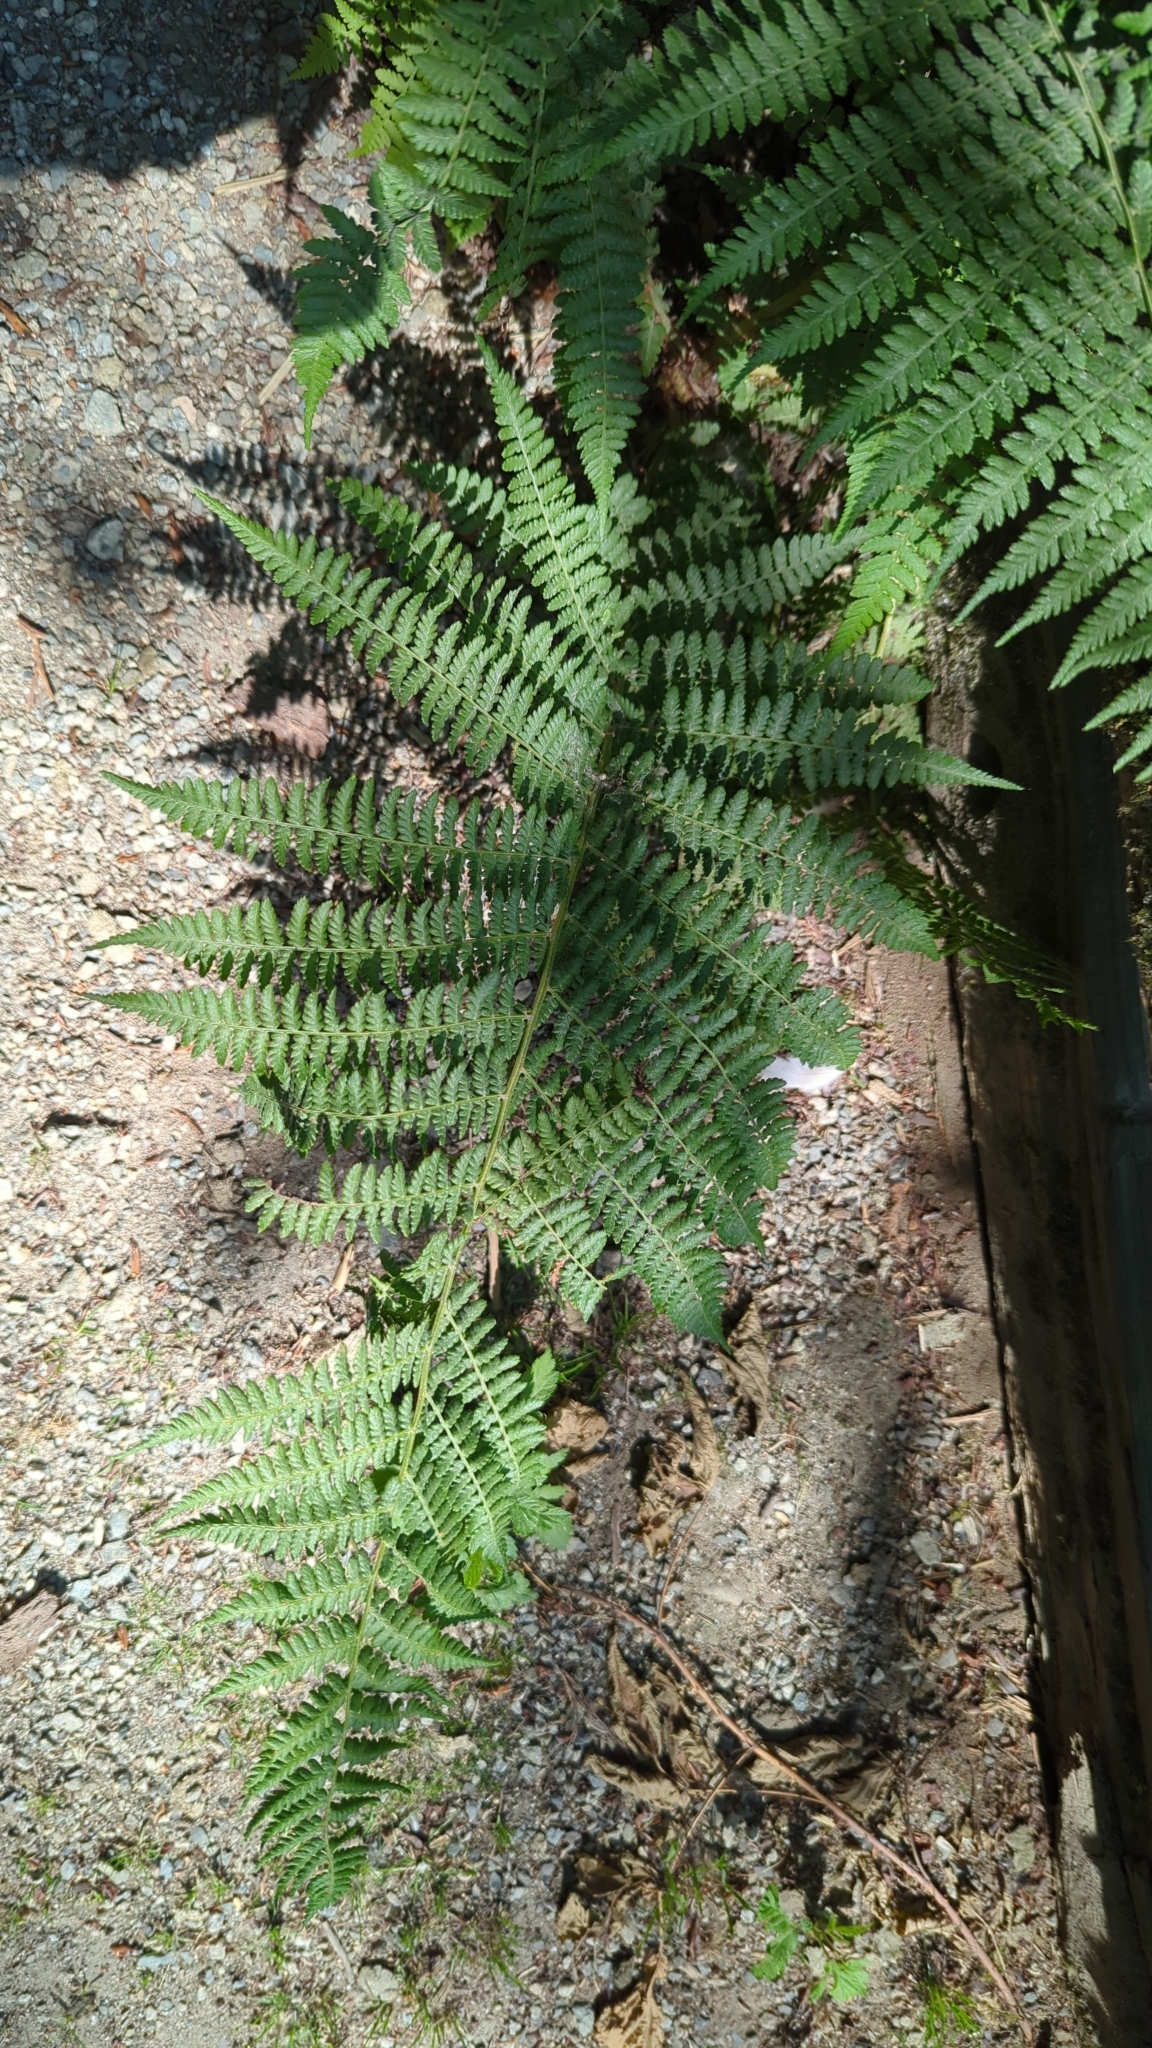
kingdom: Plantae
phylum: Tracheophyta
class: Polypodiopsida
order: Polypodiales
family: Athyriaceae
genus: Athyrium
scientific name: Athyrium filix-femina
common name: Lady fern
